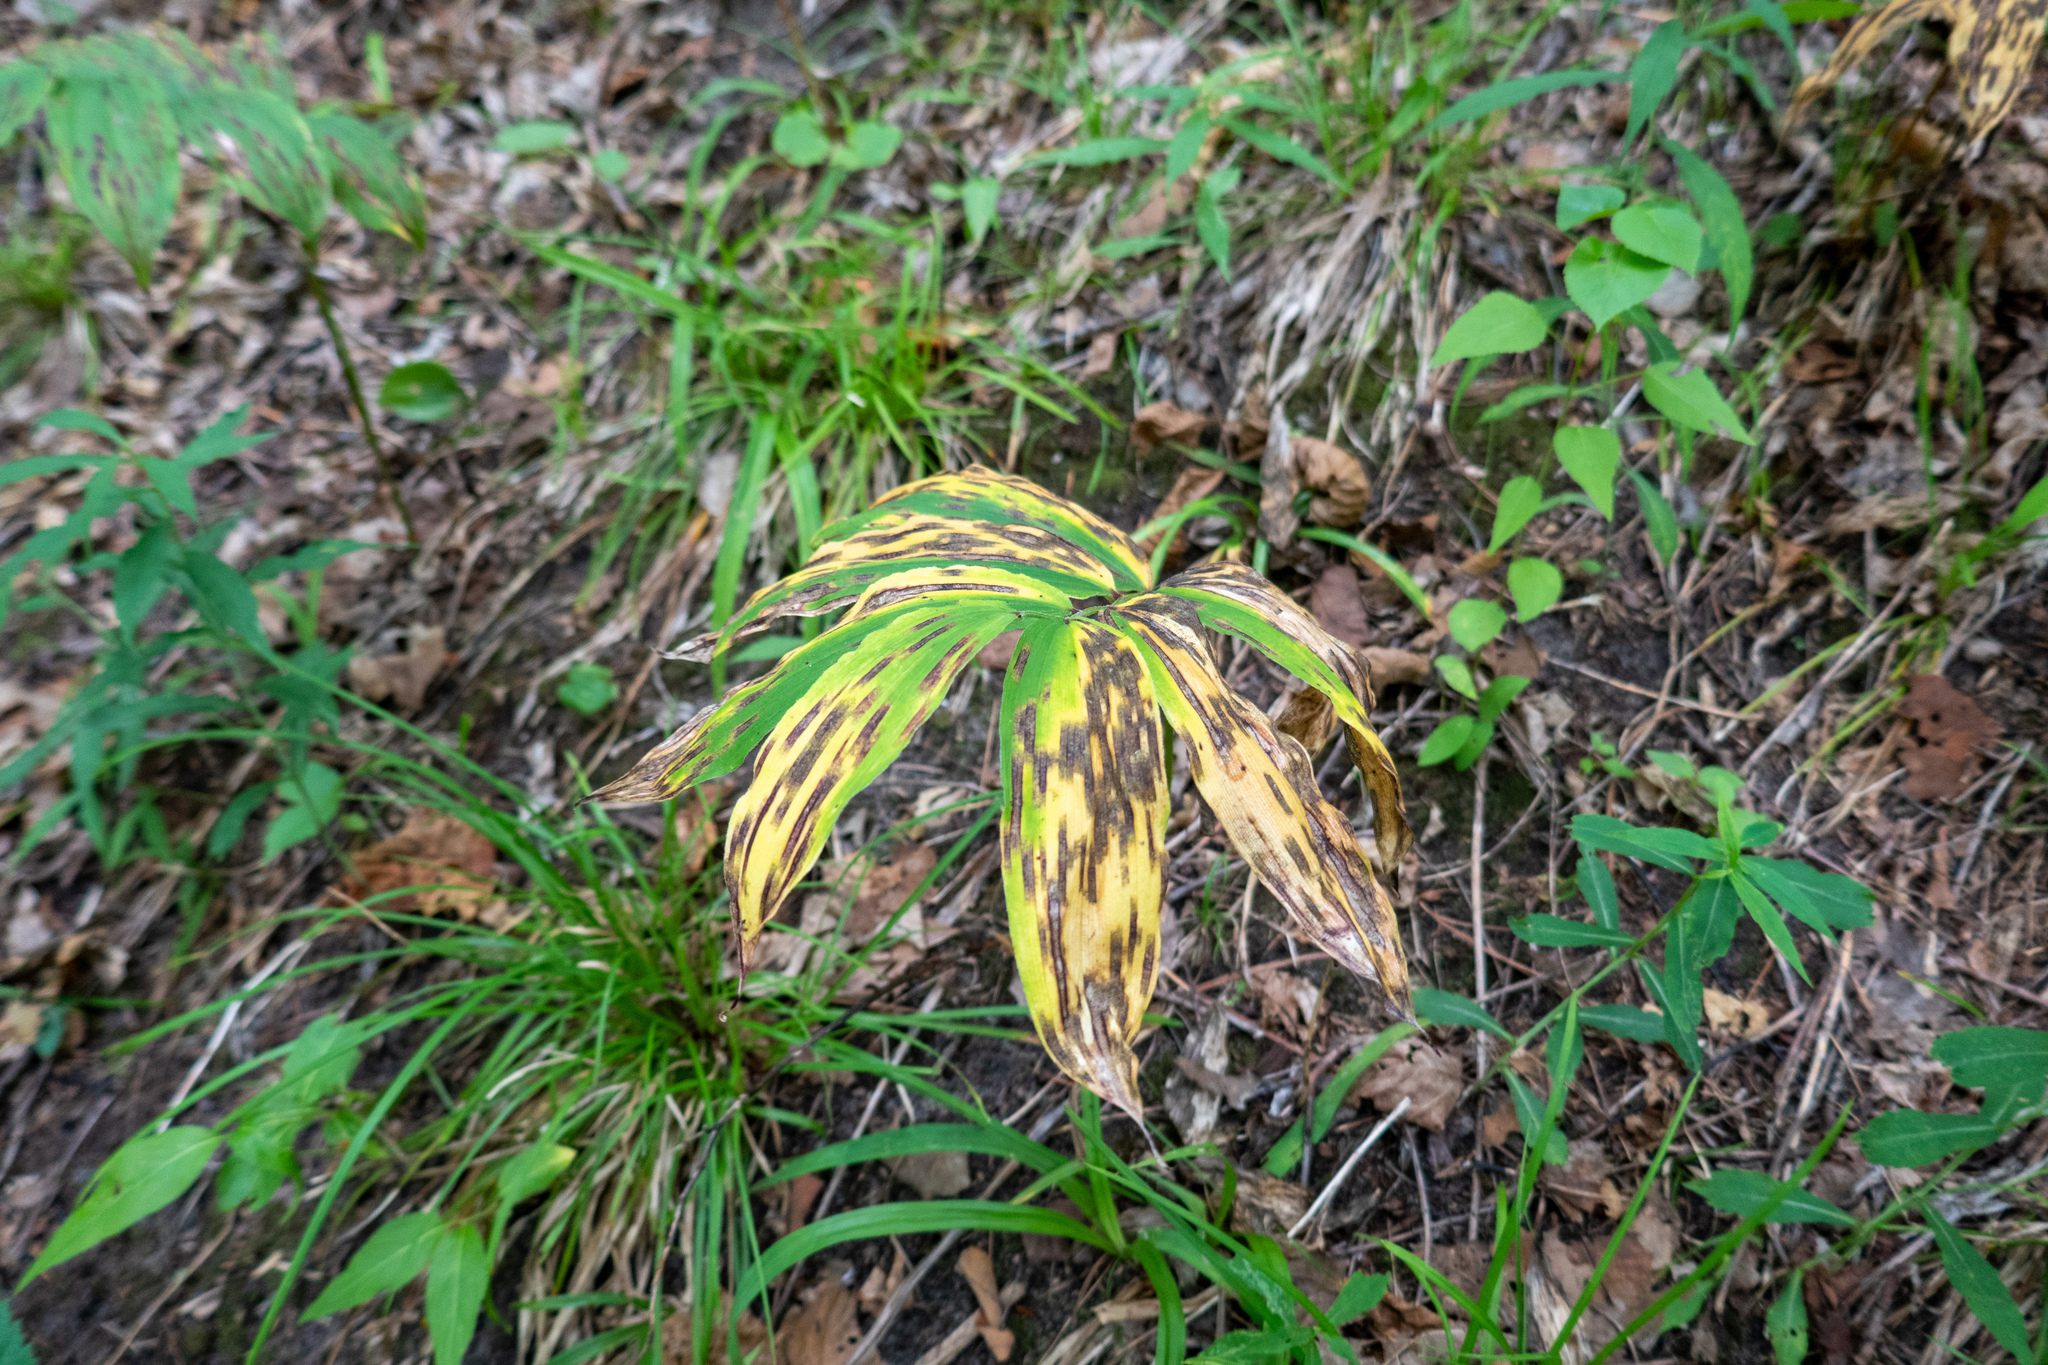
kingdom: Plantae
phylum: Tracheophyta
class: Liliopsida
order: Asparagales
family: Asparagaceae
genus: Maianthemum
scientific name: Maianthemum racemosum
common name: False spikenard
